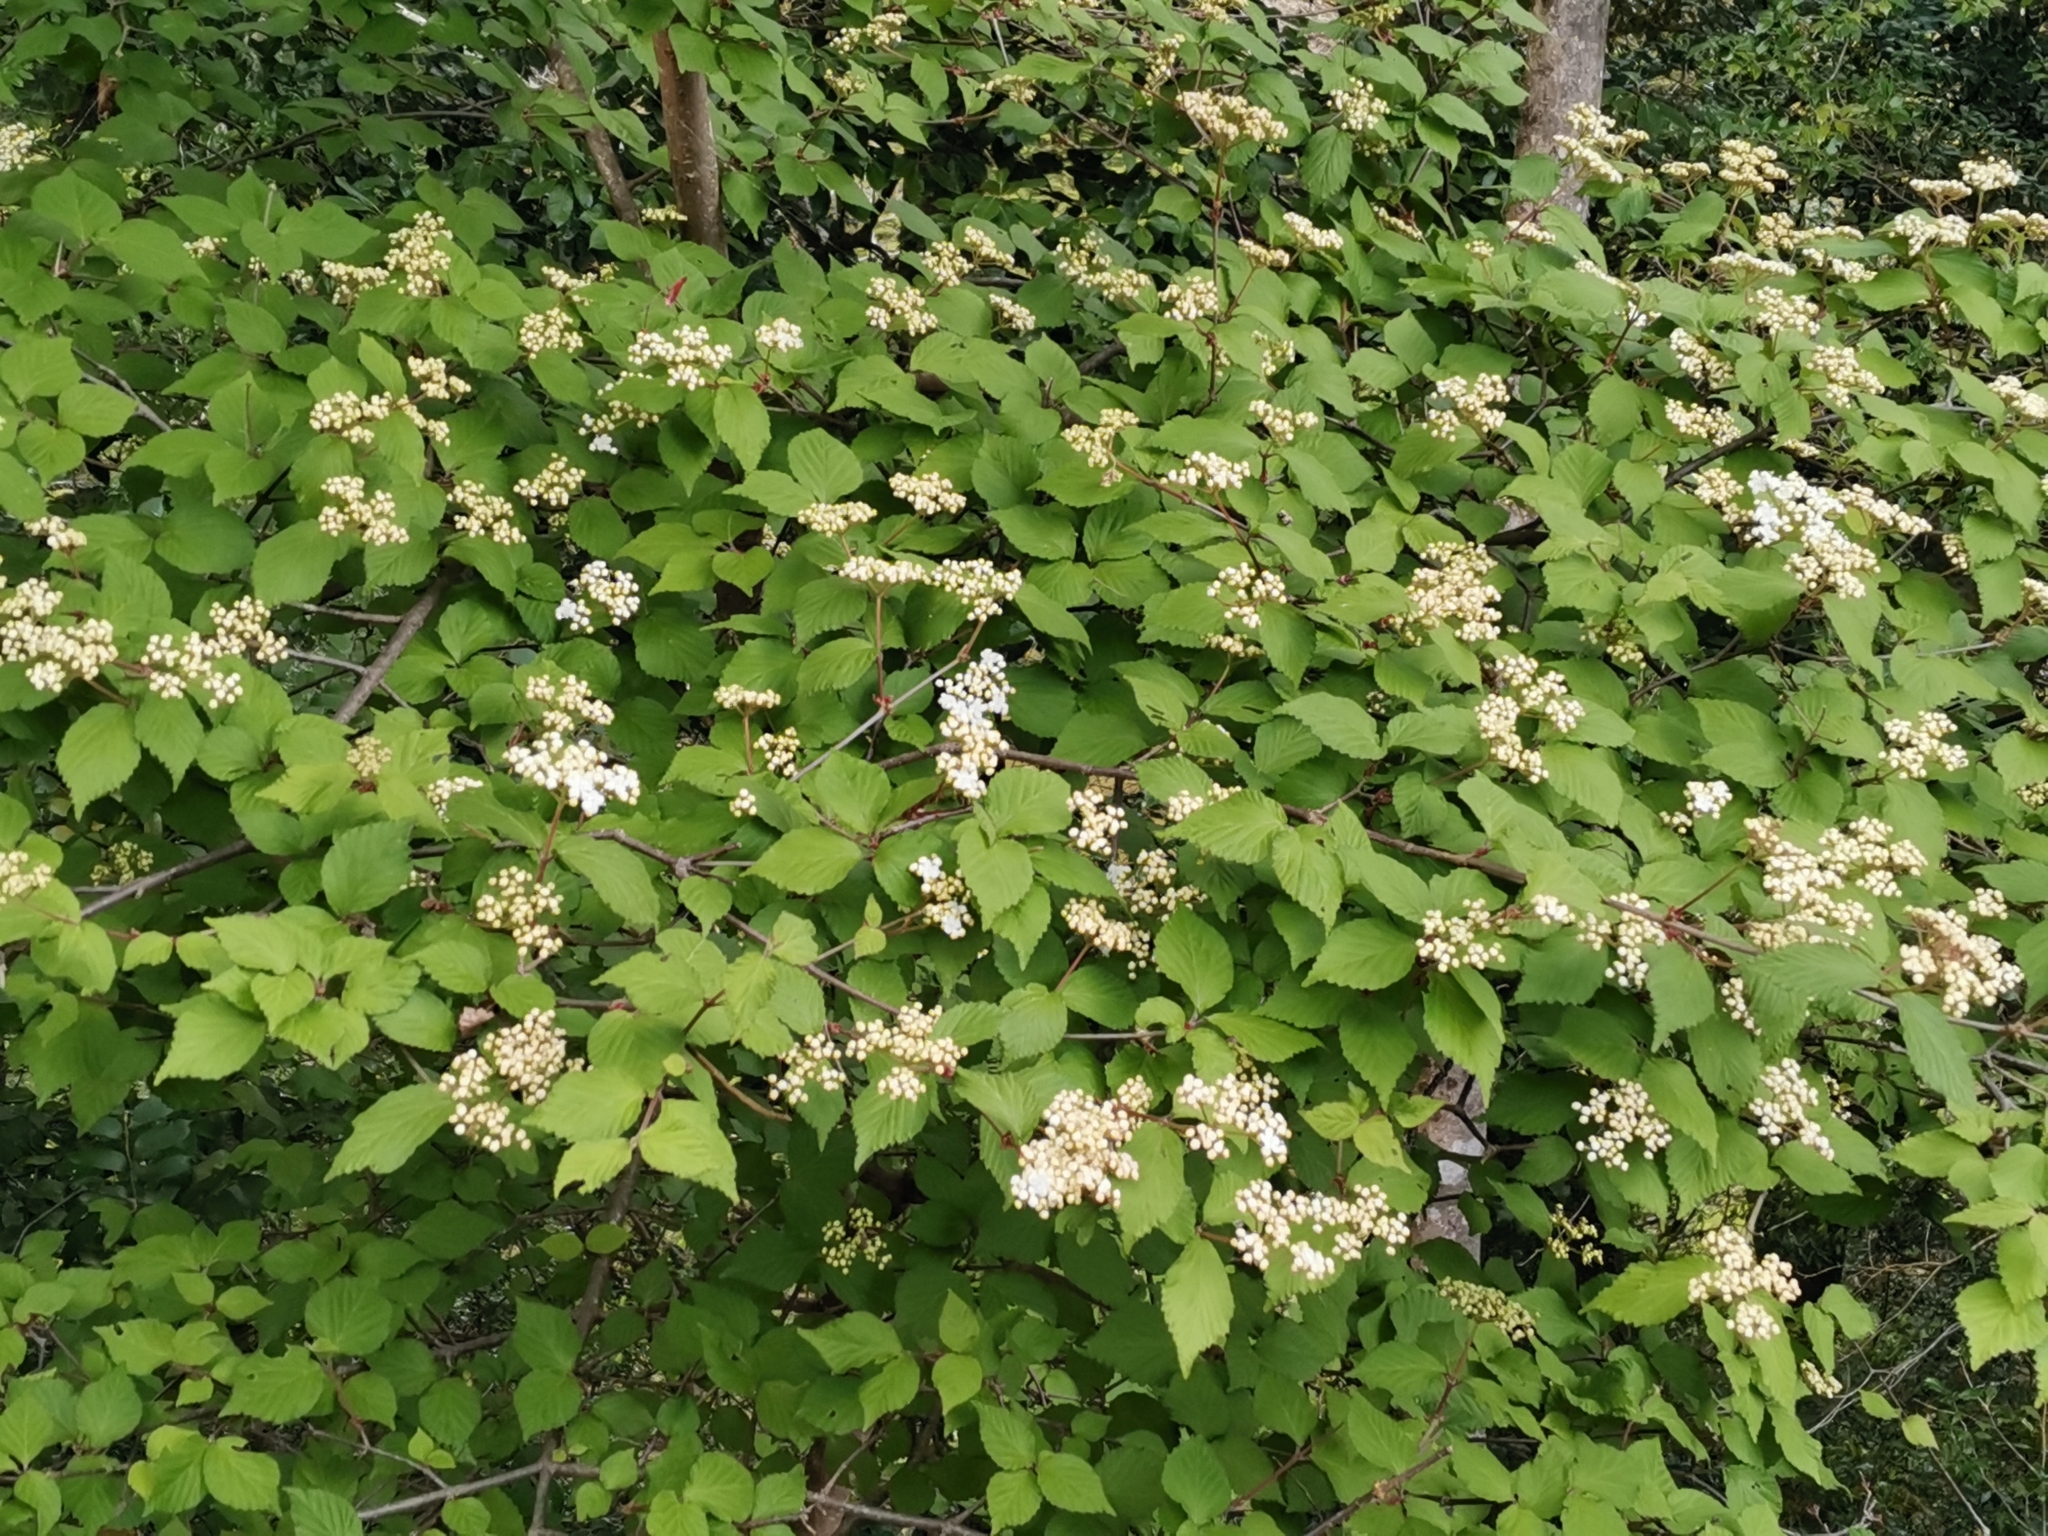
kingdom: Plantae
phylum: Tracheophyta
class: Magnoliopsida
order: Dipsacales
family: Viburnaceae
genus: Viburnum
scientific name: Viburnum erosum
